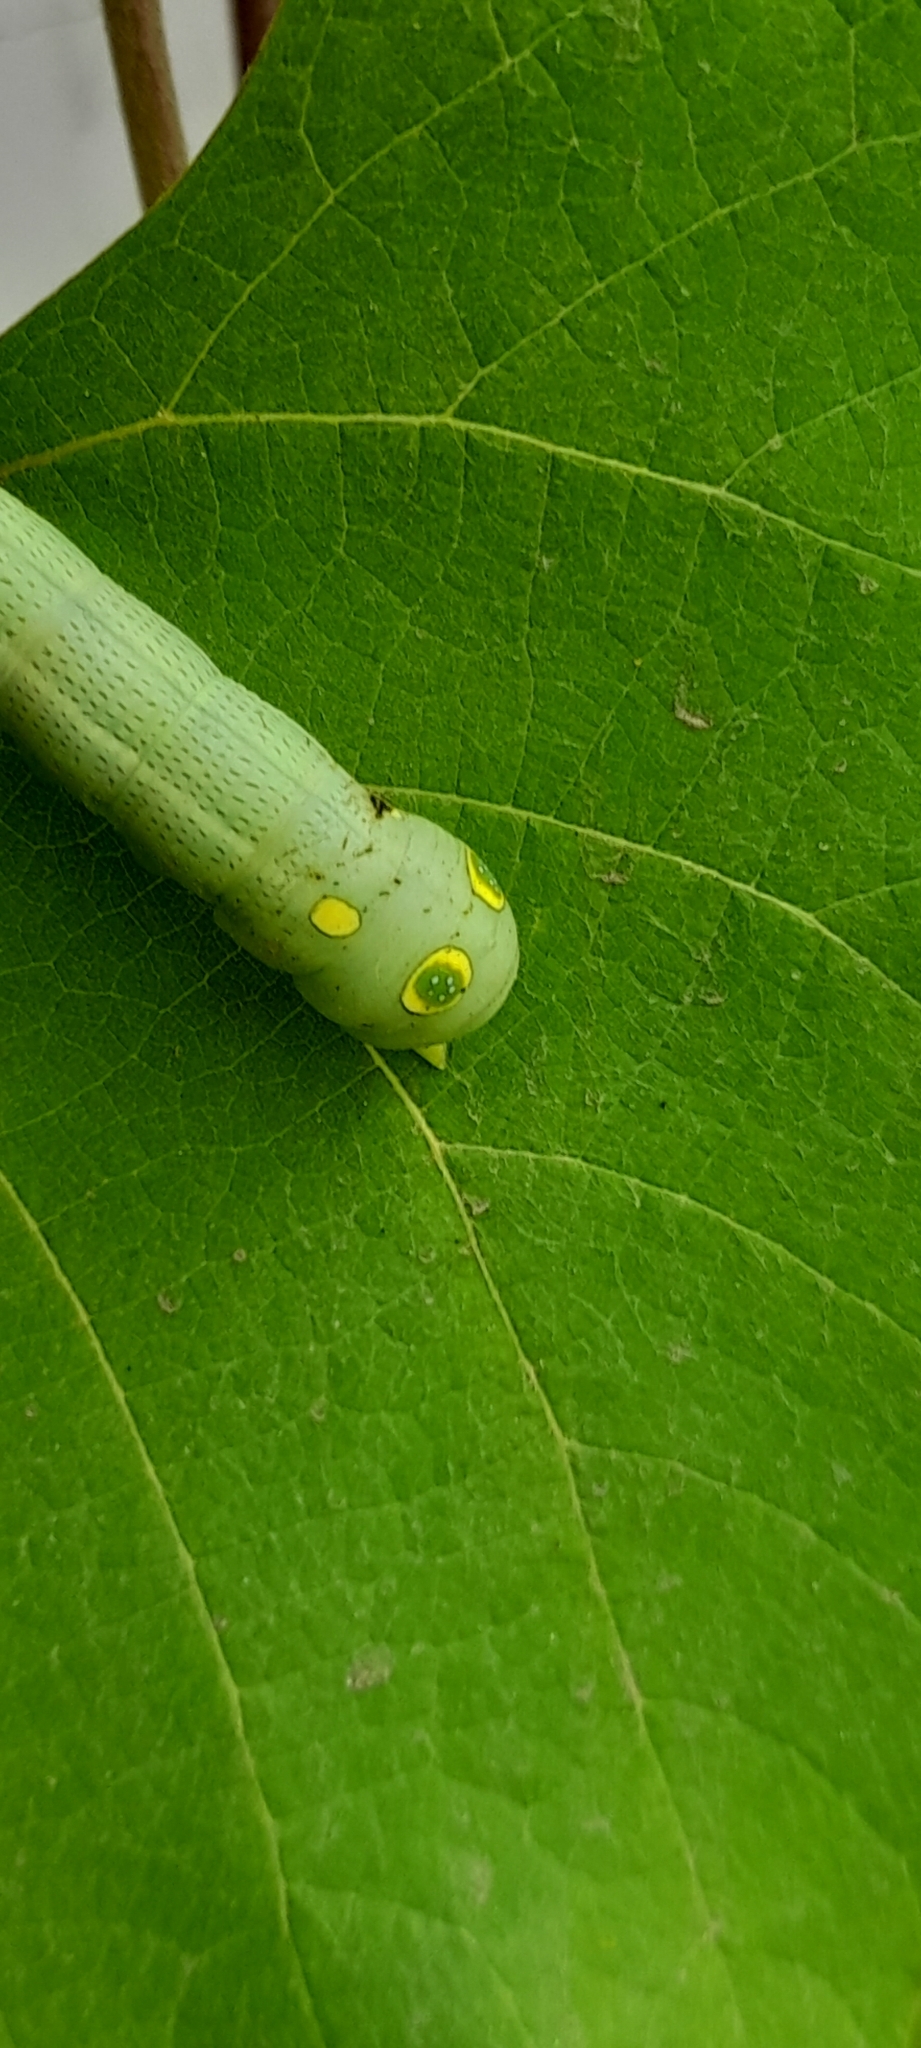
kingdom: Animalia
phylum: Arthropoda
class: Insecta
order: Lepidoptera
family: Sphingidae
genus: Hippotion
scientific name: Hippotion celerio
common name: Silver-striped hawk-moth
